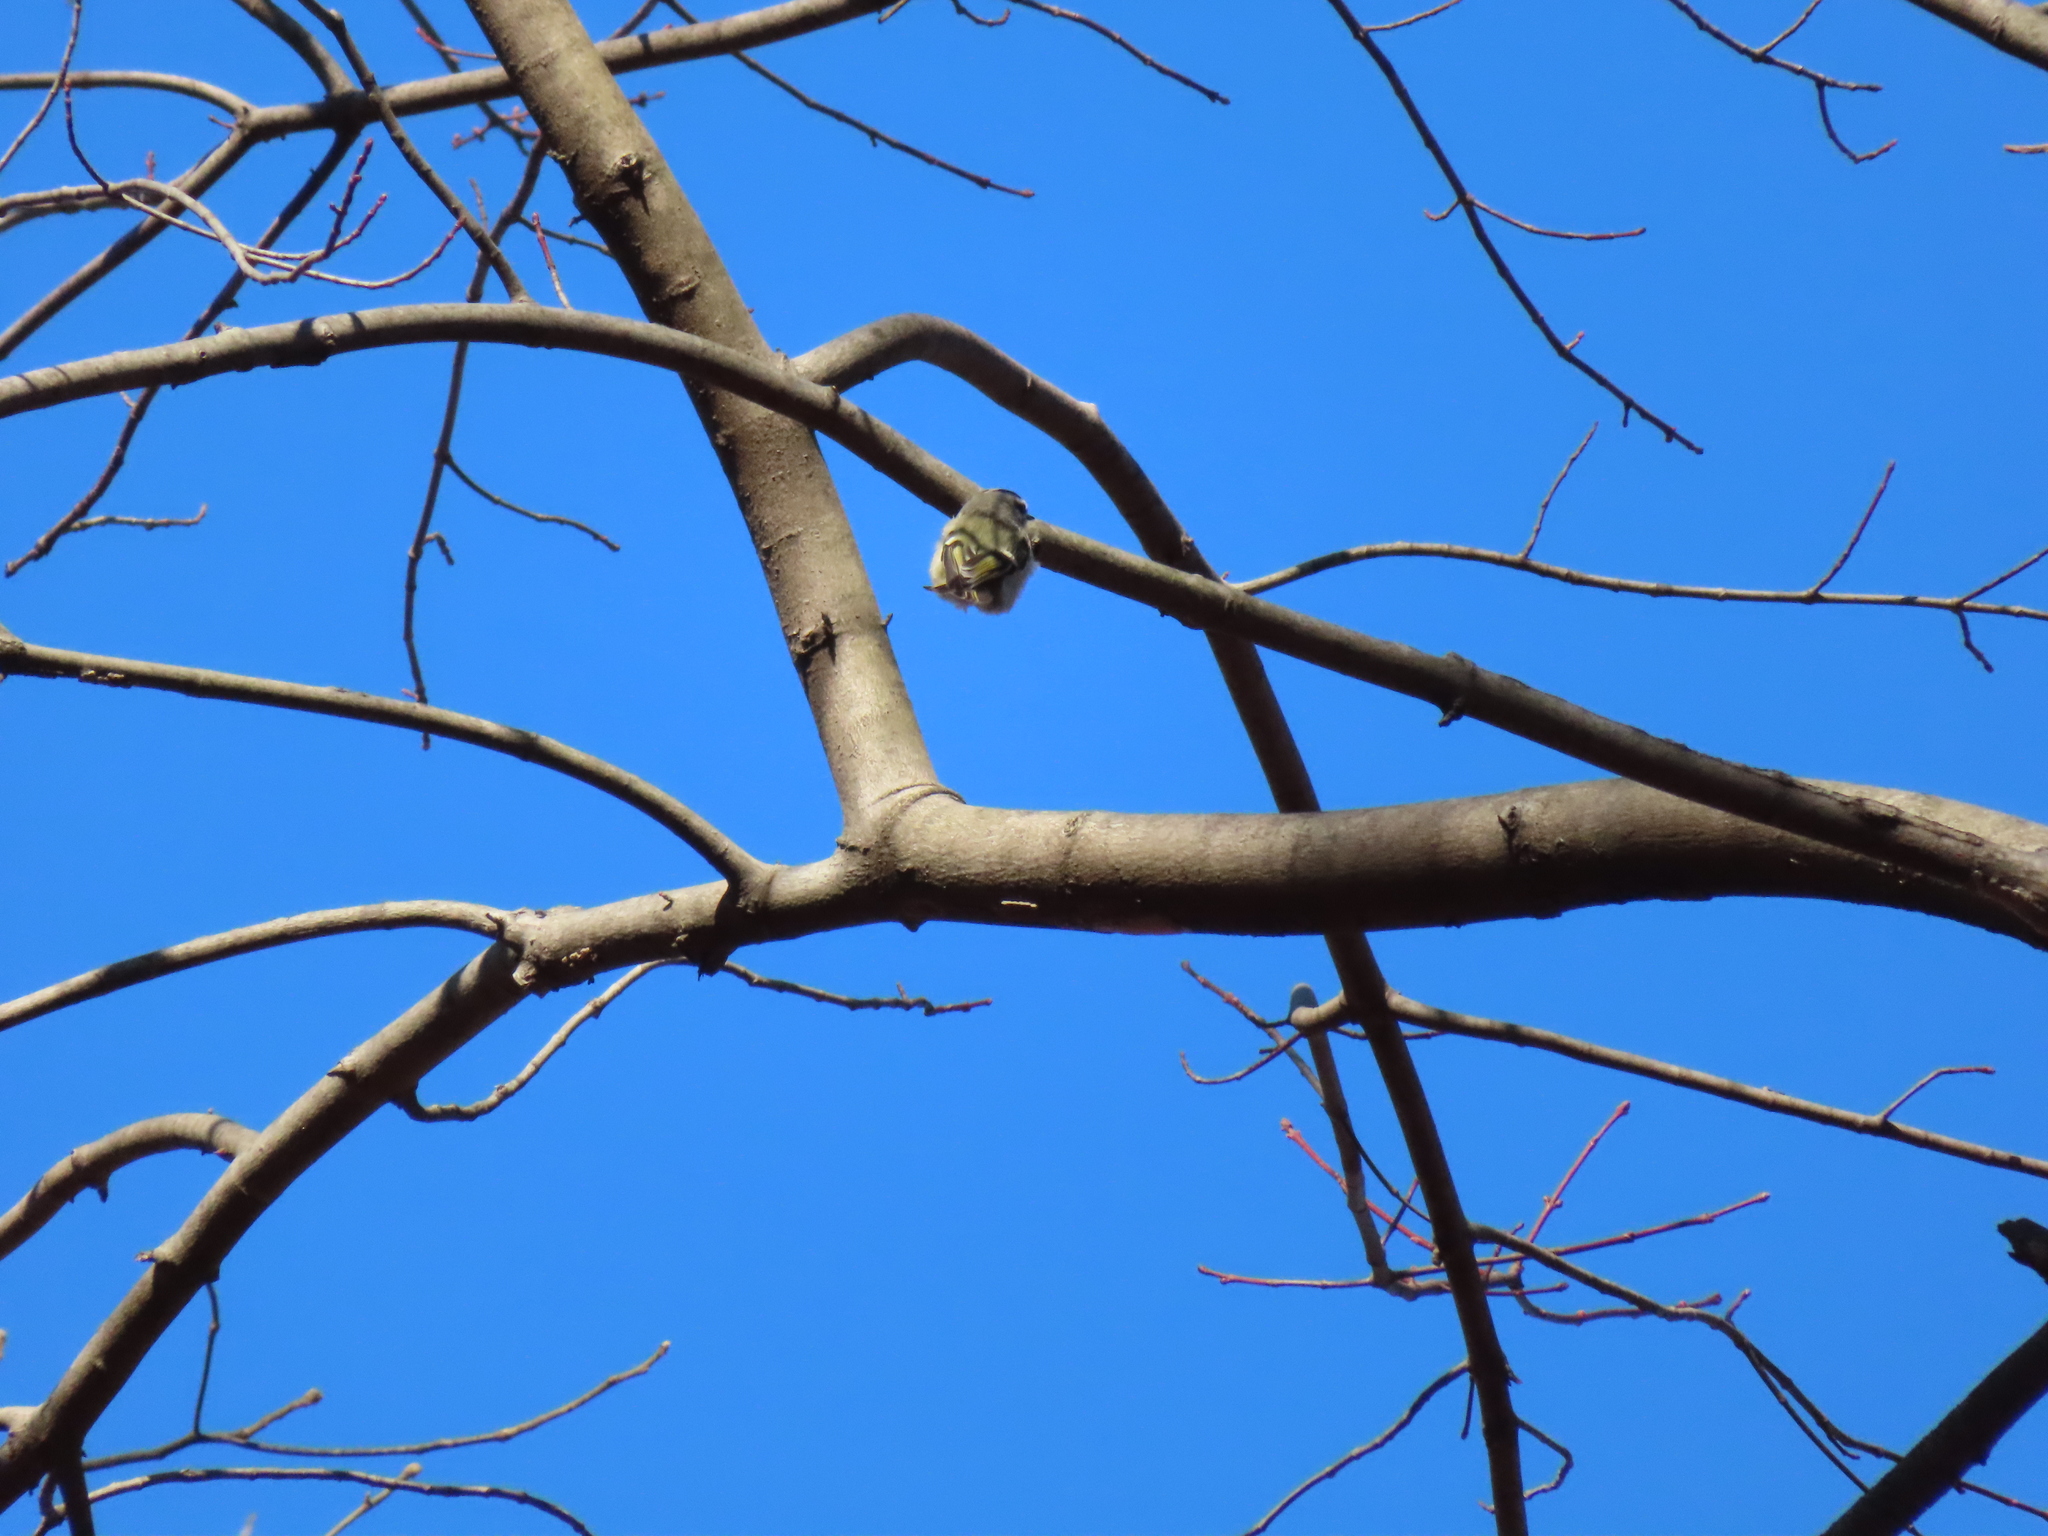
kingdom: Animalia
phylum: Chordata
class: Aves
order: Passeriformes
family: Regulidae
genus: Regulus
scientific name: Regulus satrapa
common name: Golden-crowned kinglet
